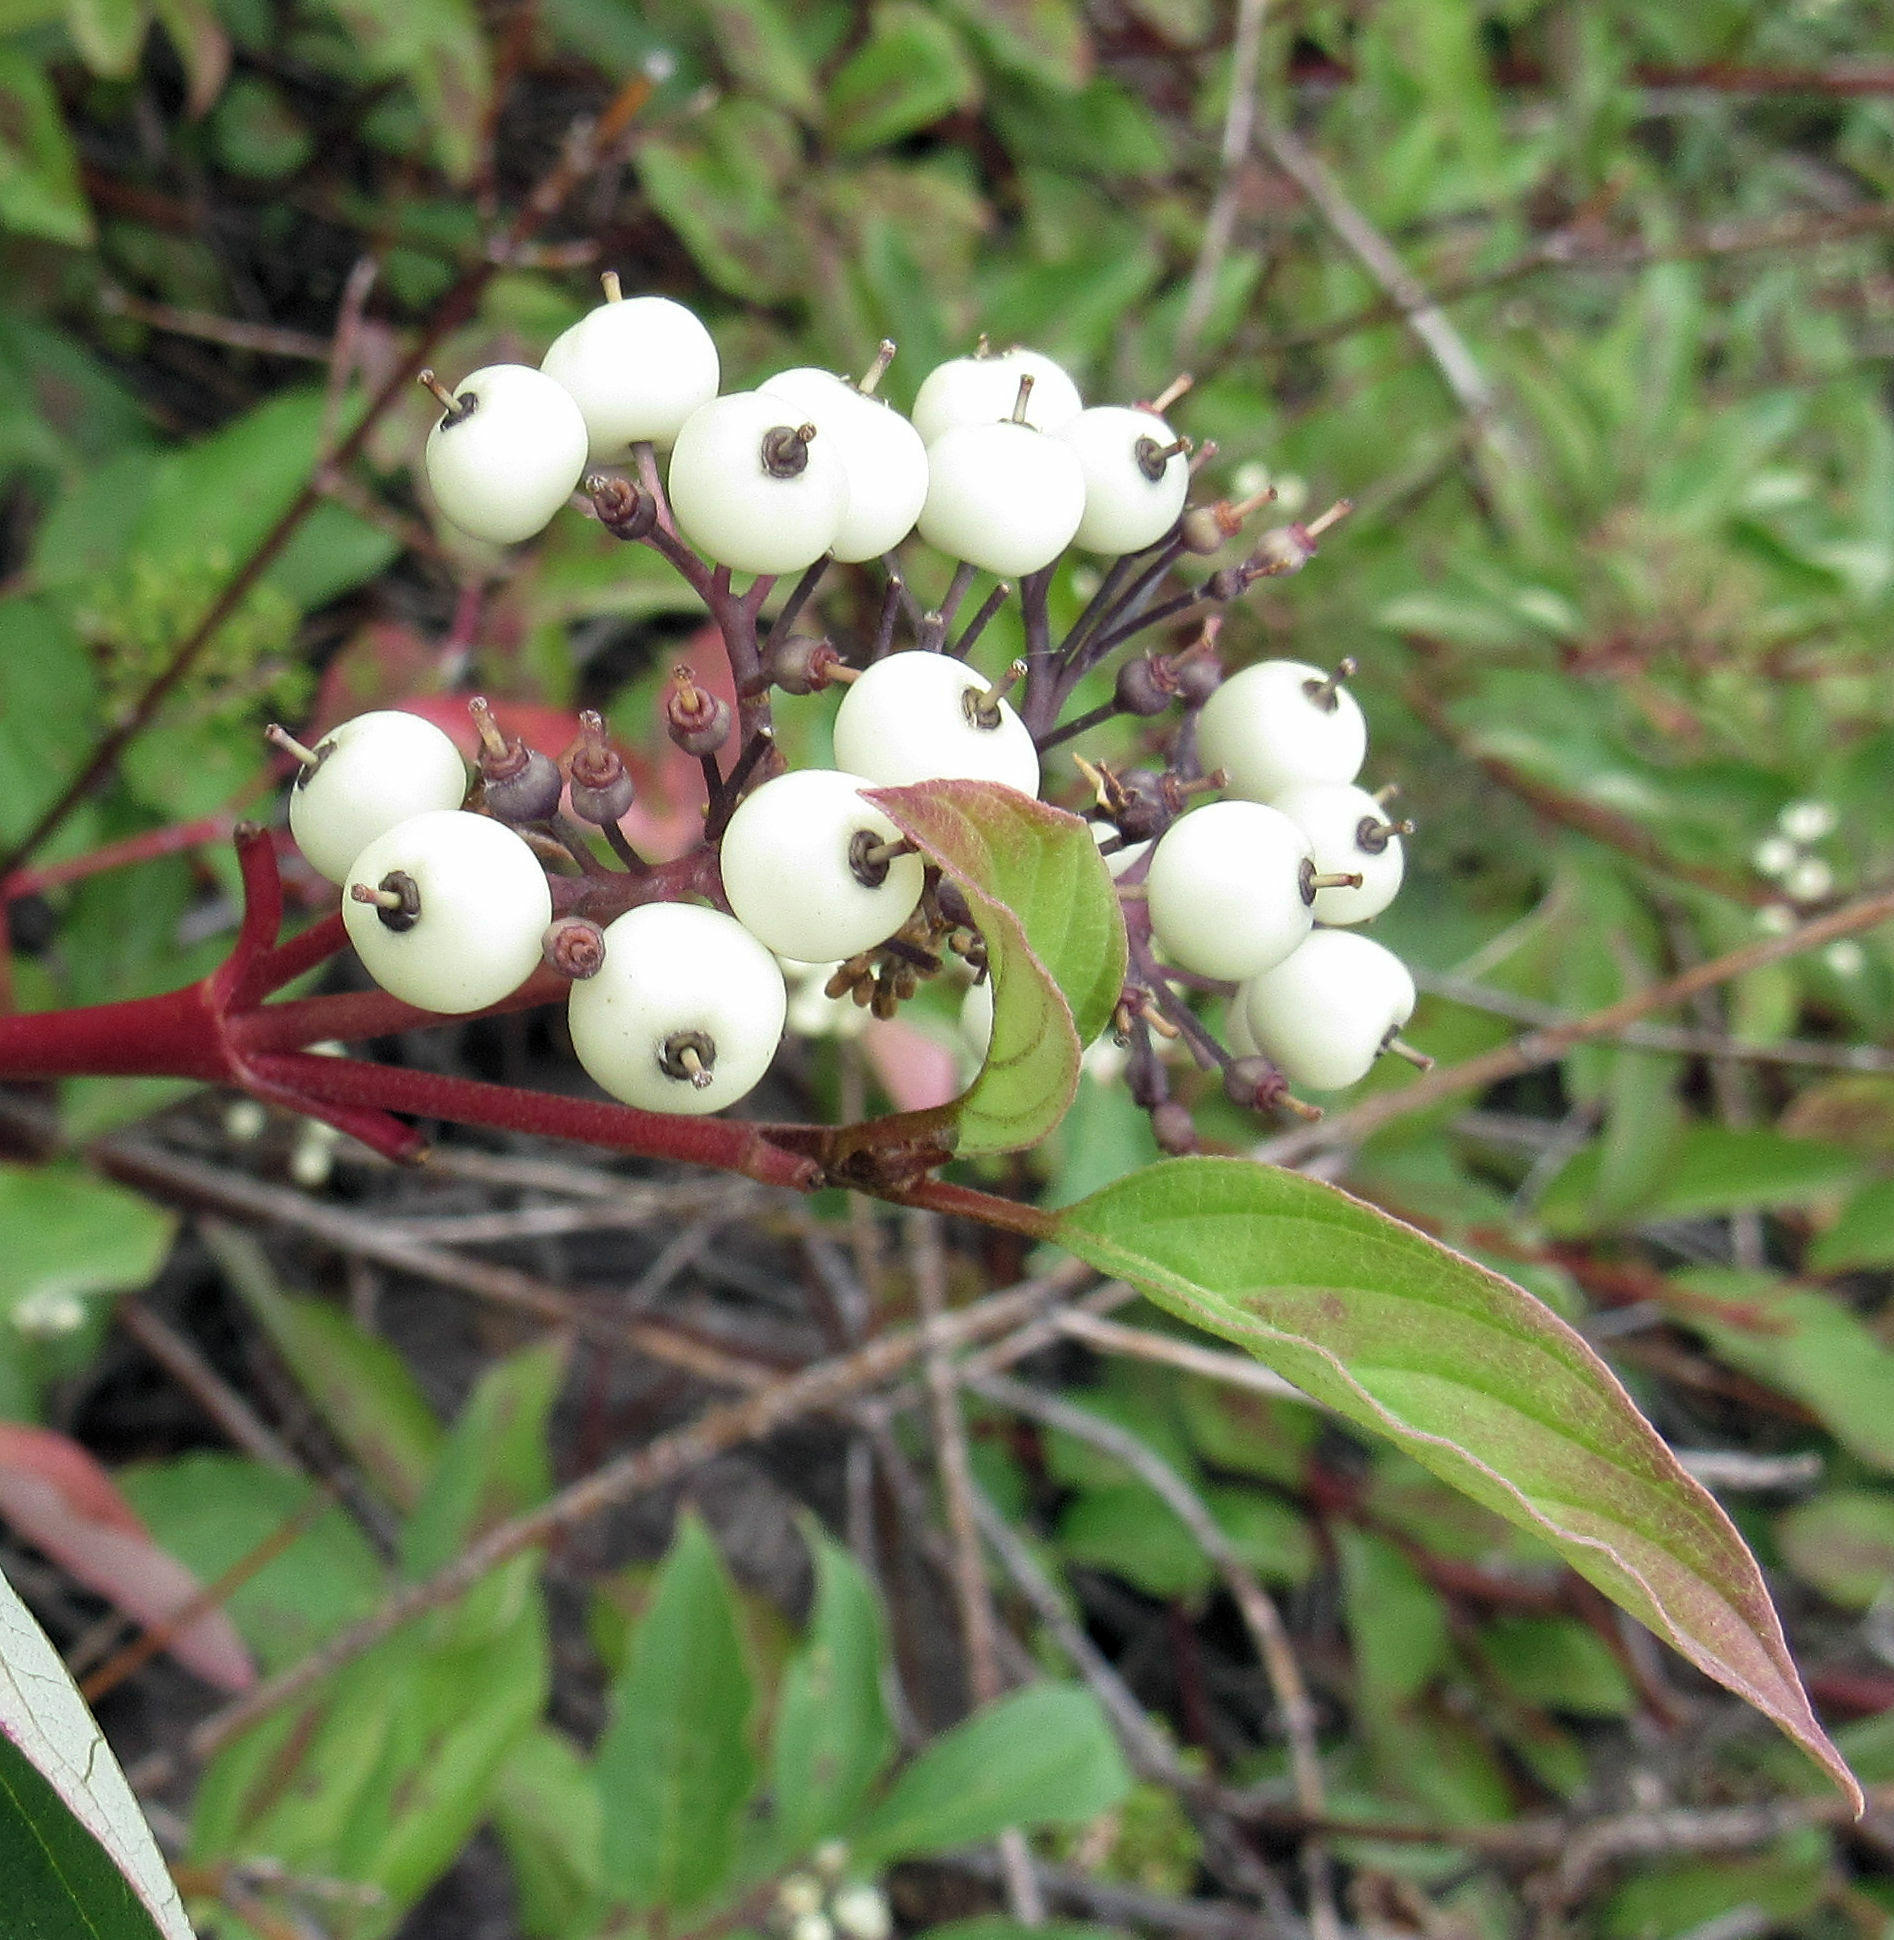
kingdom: Plantae
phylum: Tracheophyta
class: Magnoliopsida
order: Cornales
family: Cornaceae
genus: Cornus
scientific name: Cornus sericea
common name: Red-osier dogwood
